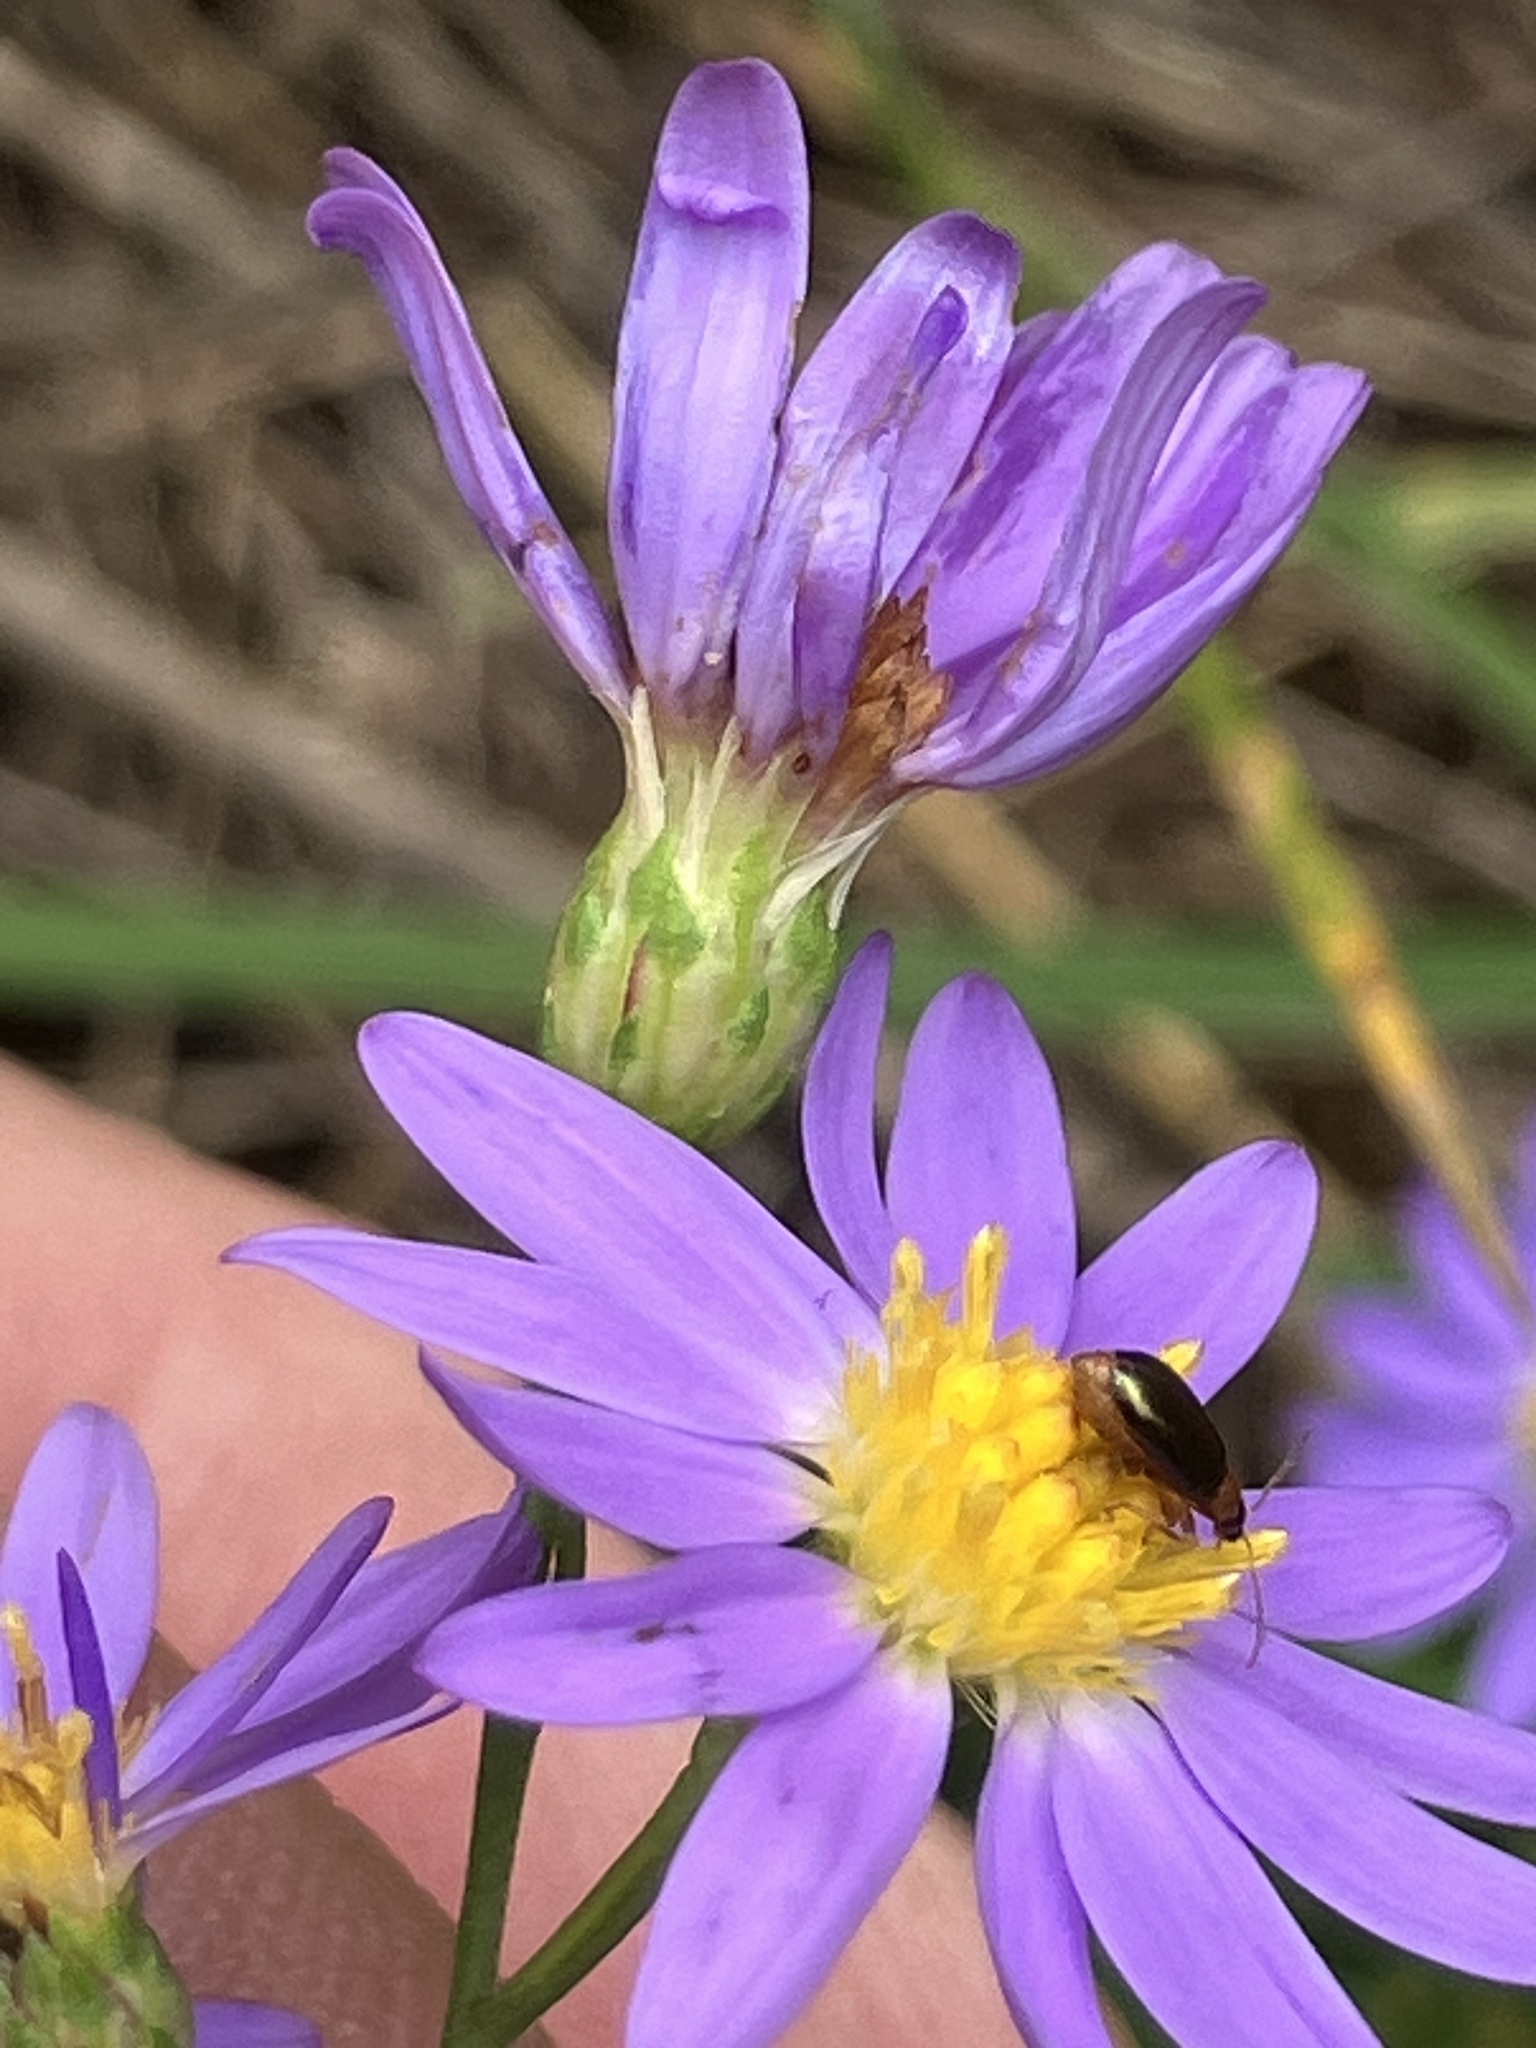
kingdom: Plantae
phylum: Tracheophyta
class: Magnoliopsida
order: Asterales
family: Asteraceae
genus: Symphyotrichum
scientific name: Symphyotrichum oolentangiense
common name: Azure aster
